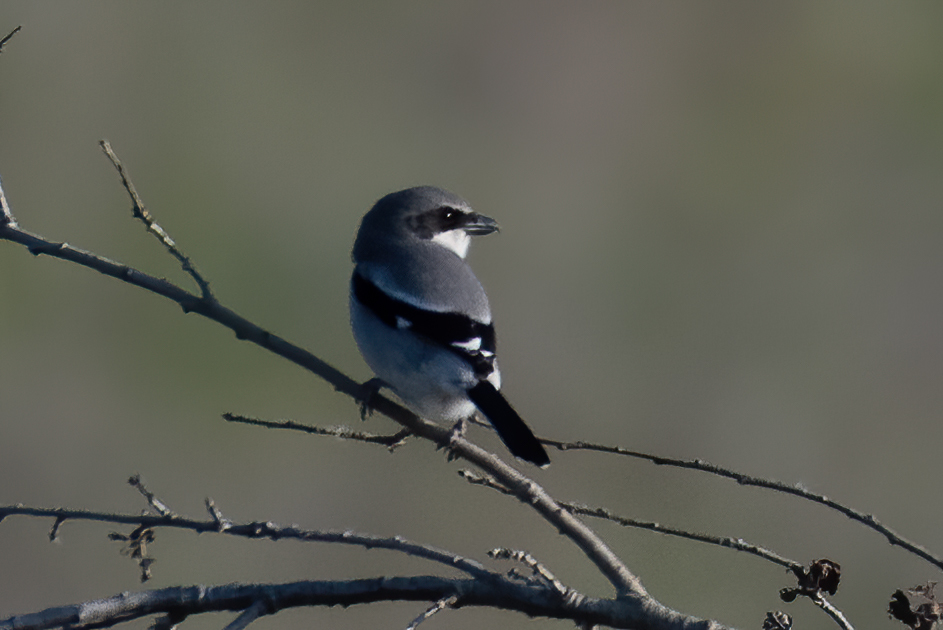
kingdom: Animalia
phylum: Chordata
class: Aves
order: Passeriformes
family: Laniidae
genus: Lanius
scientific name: Lanius ludovicianus
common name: Loggerhead shrike
